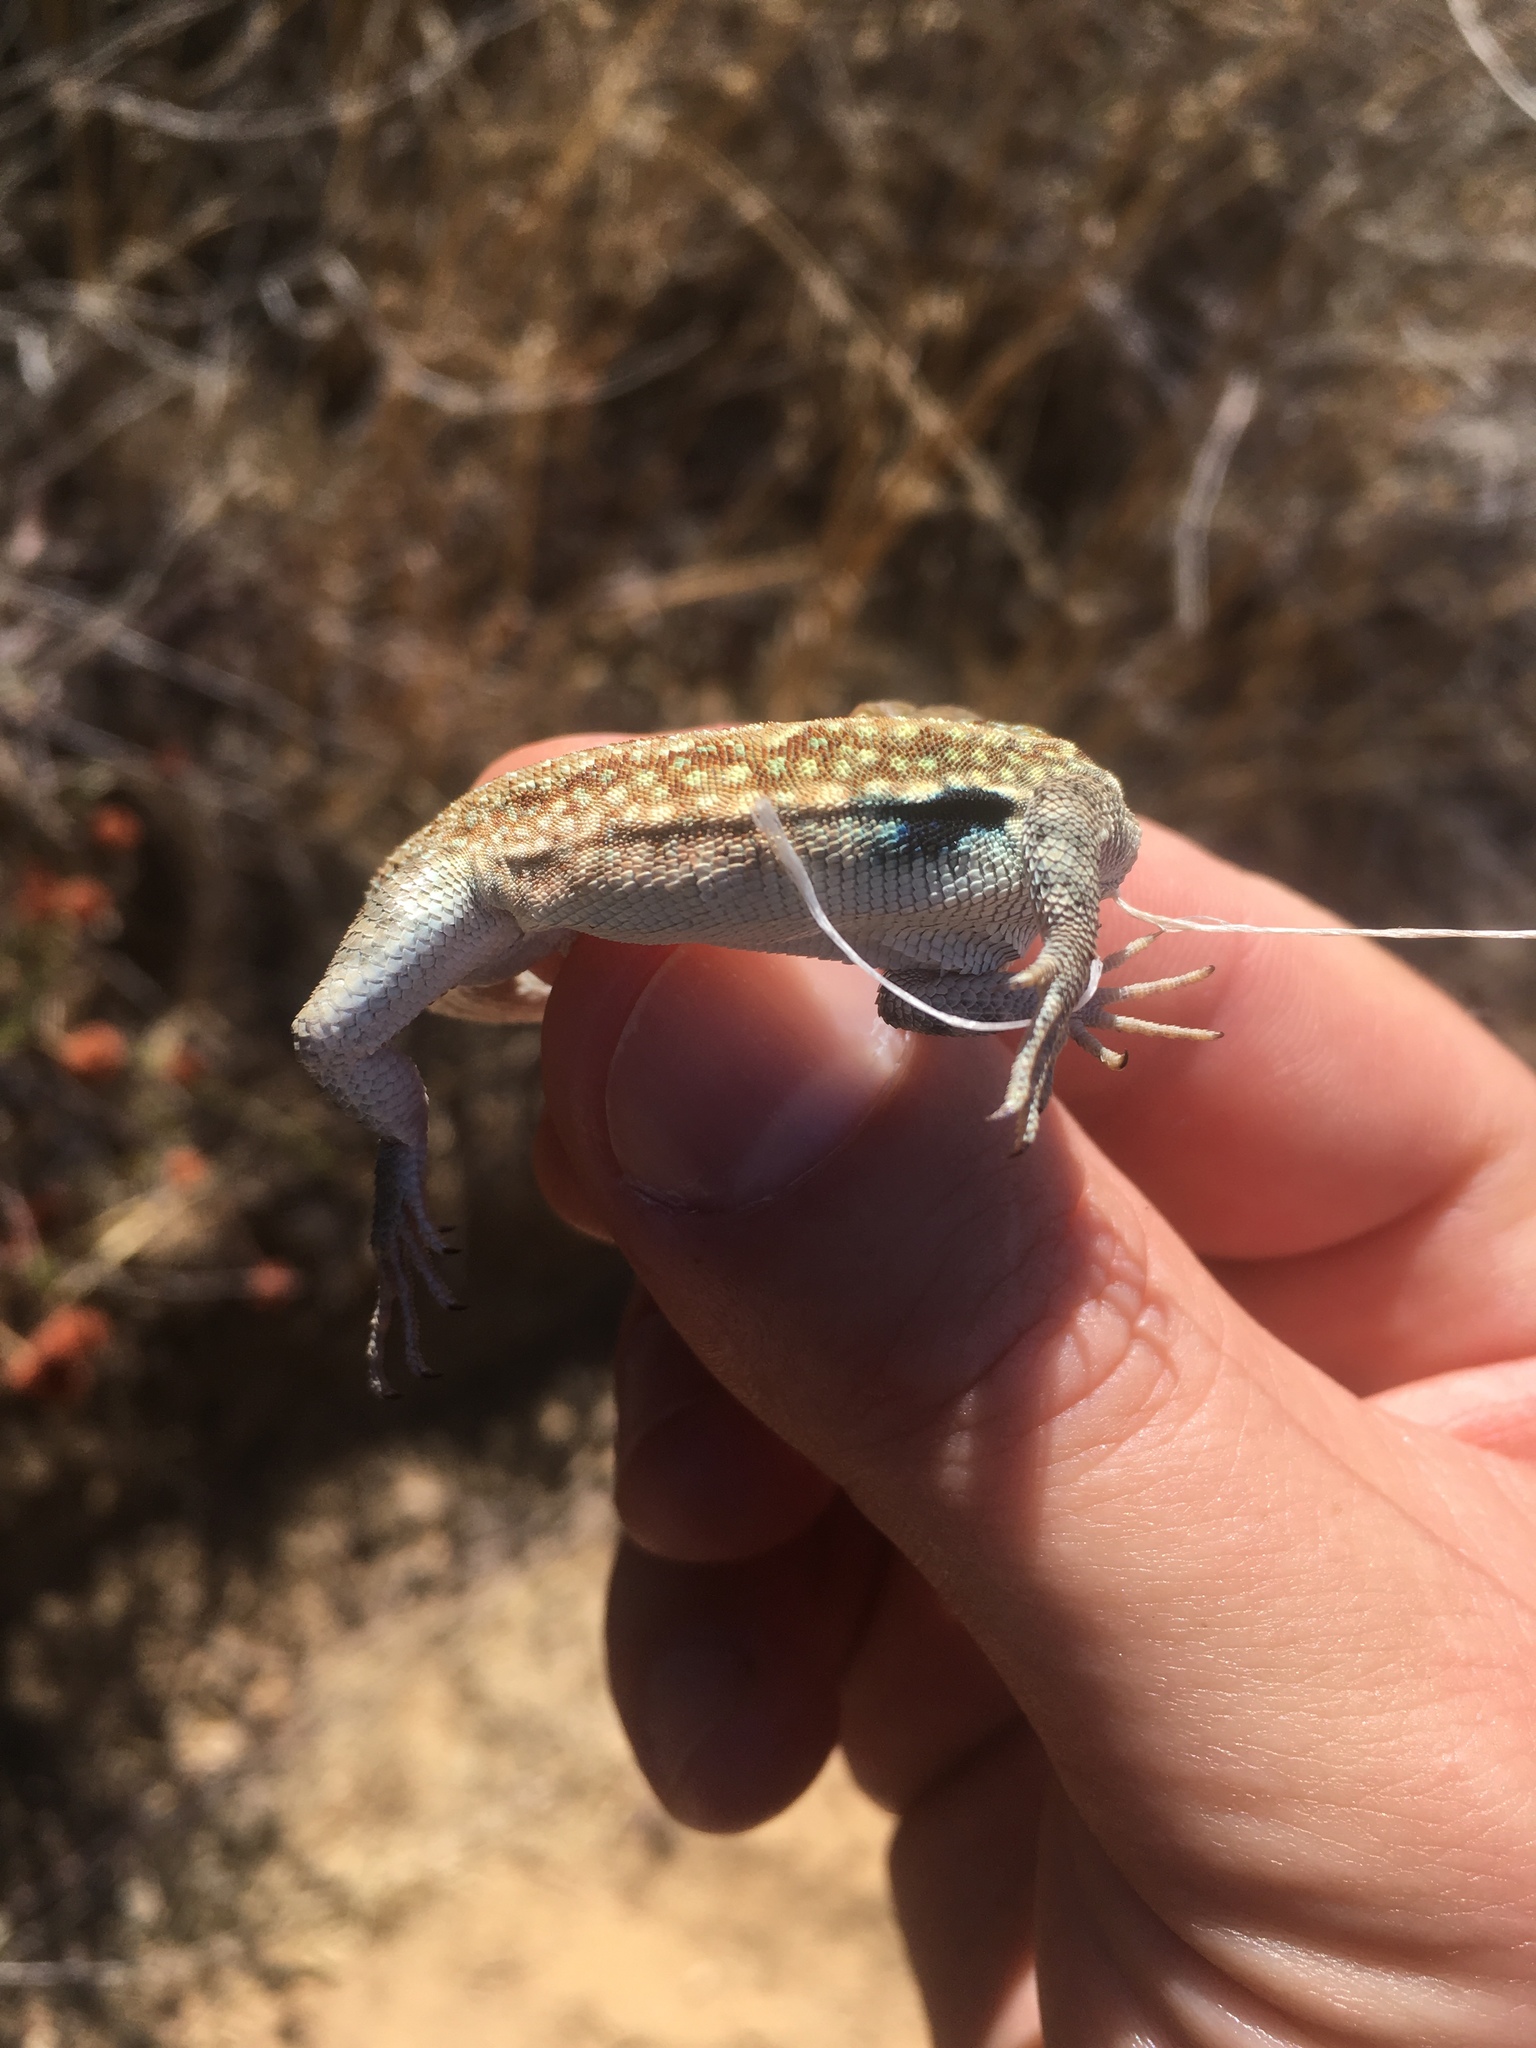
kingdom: Animalia
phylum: Chordata
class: Squamata
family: Phrynosomatidae
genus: Uta
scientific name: Uta stansburiana
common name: Side-blotched lizard
